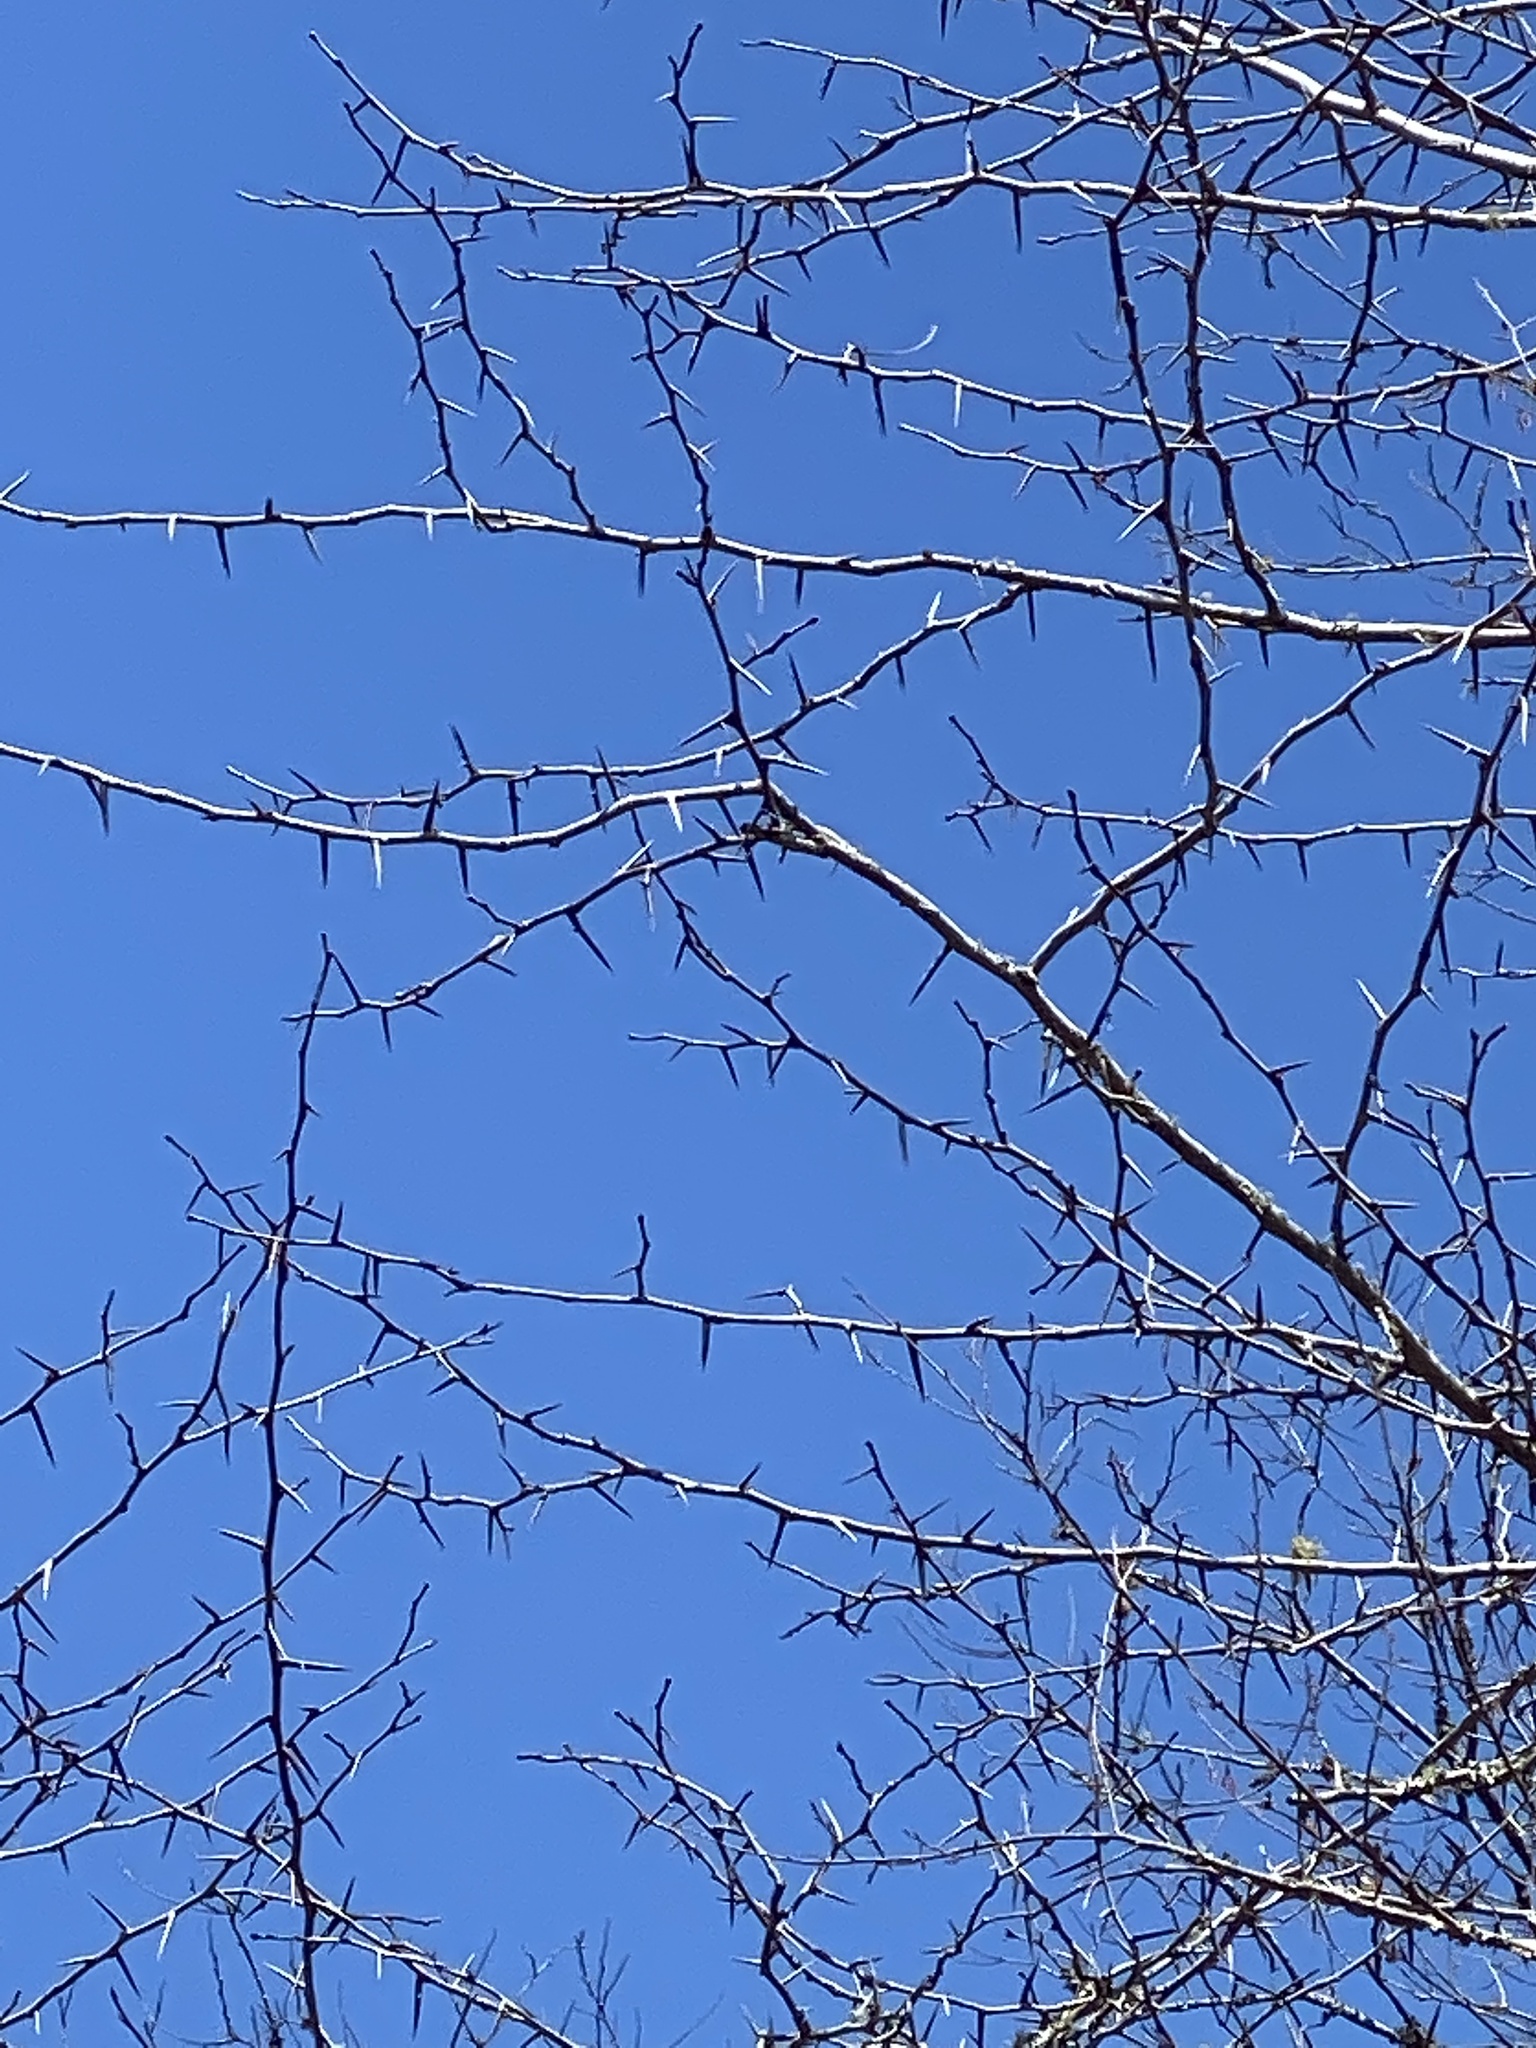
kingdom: Plantae
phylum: Tracheophyta
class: Magnoliopsida
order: Fabales
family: Fabaceae
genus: Gleditsia
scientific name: Gleditsia triacanthos
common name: Common honeylocust
